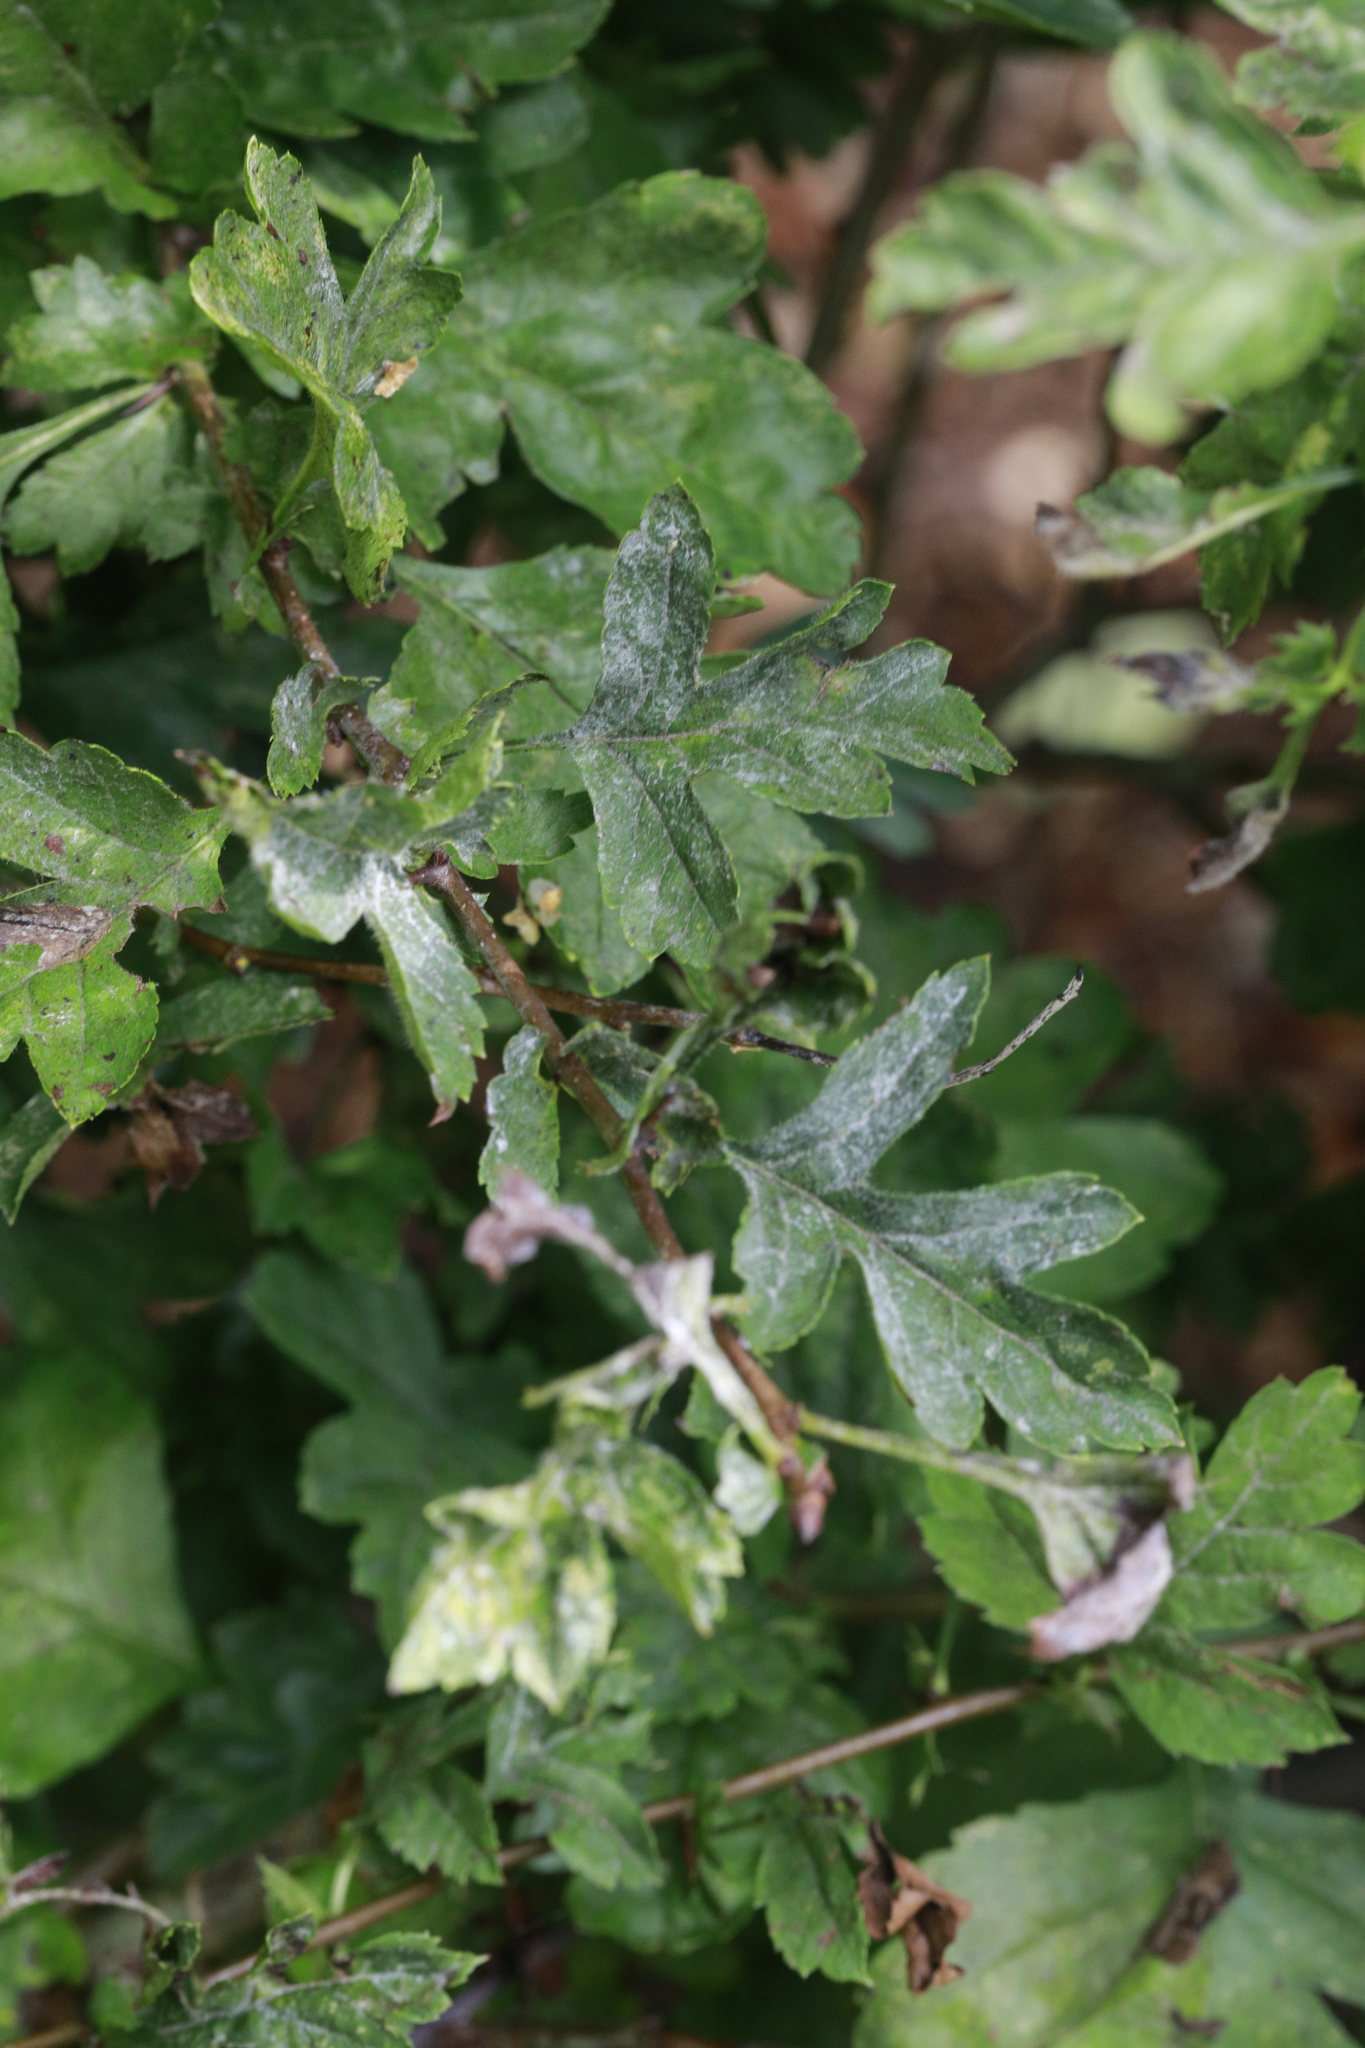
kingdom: Plantae
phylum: Tracheophyta
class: Magnoliopsida
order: Rosales
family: Rosaceae
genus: Crataegus
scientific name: Crataegus monogyna
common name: Hawthorn
